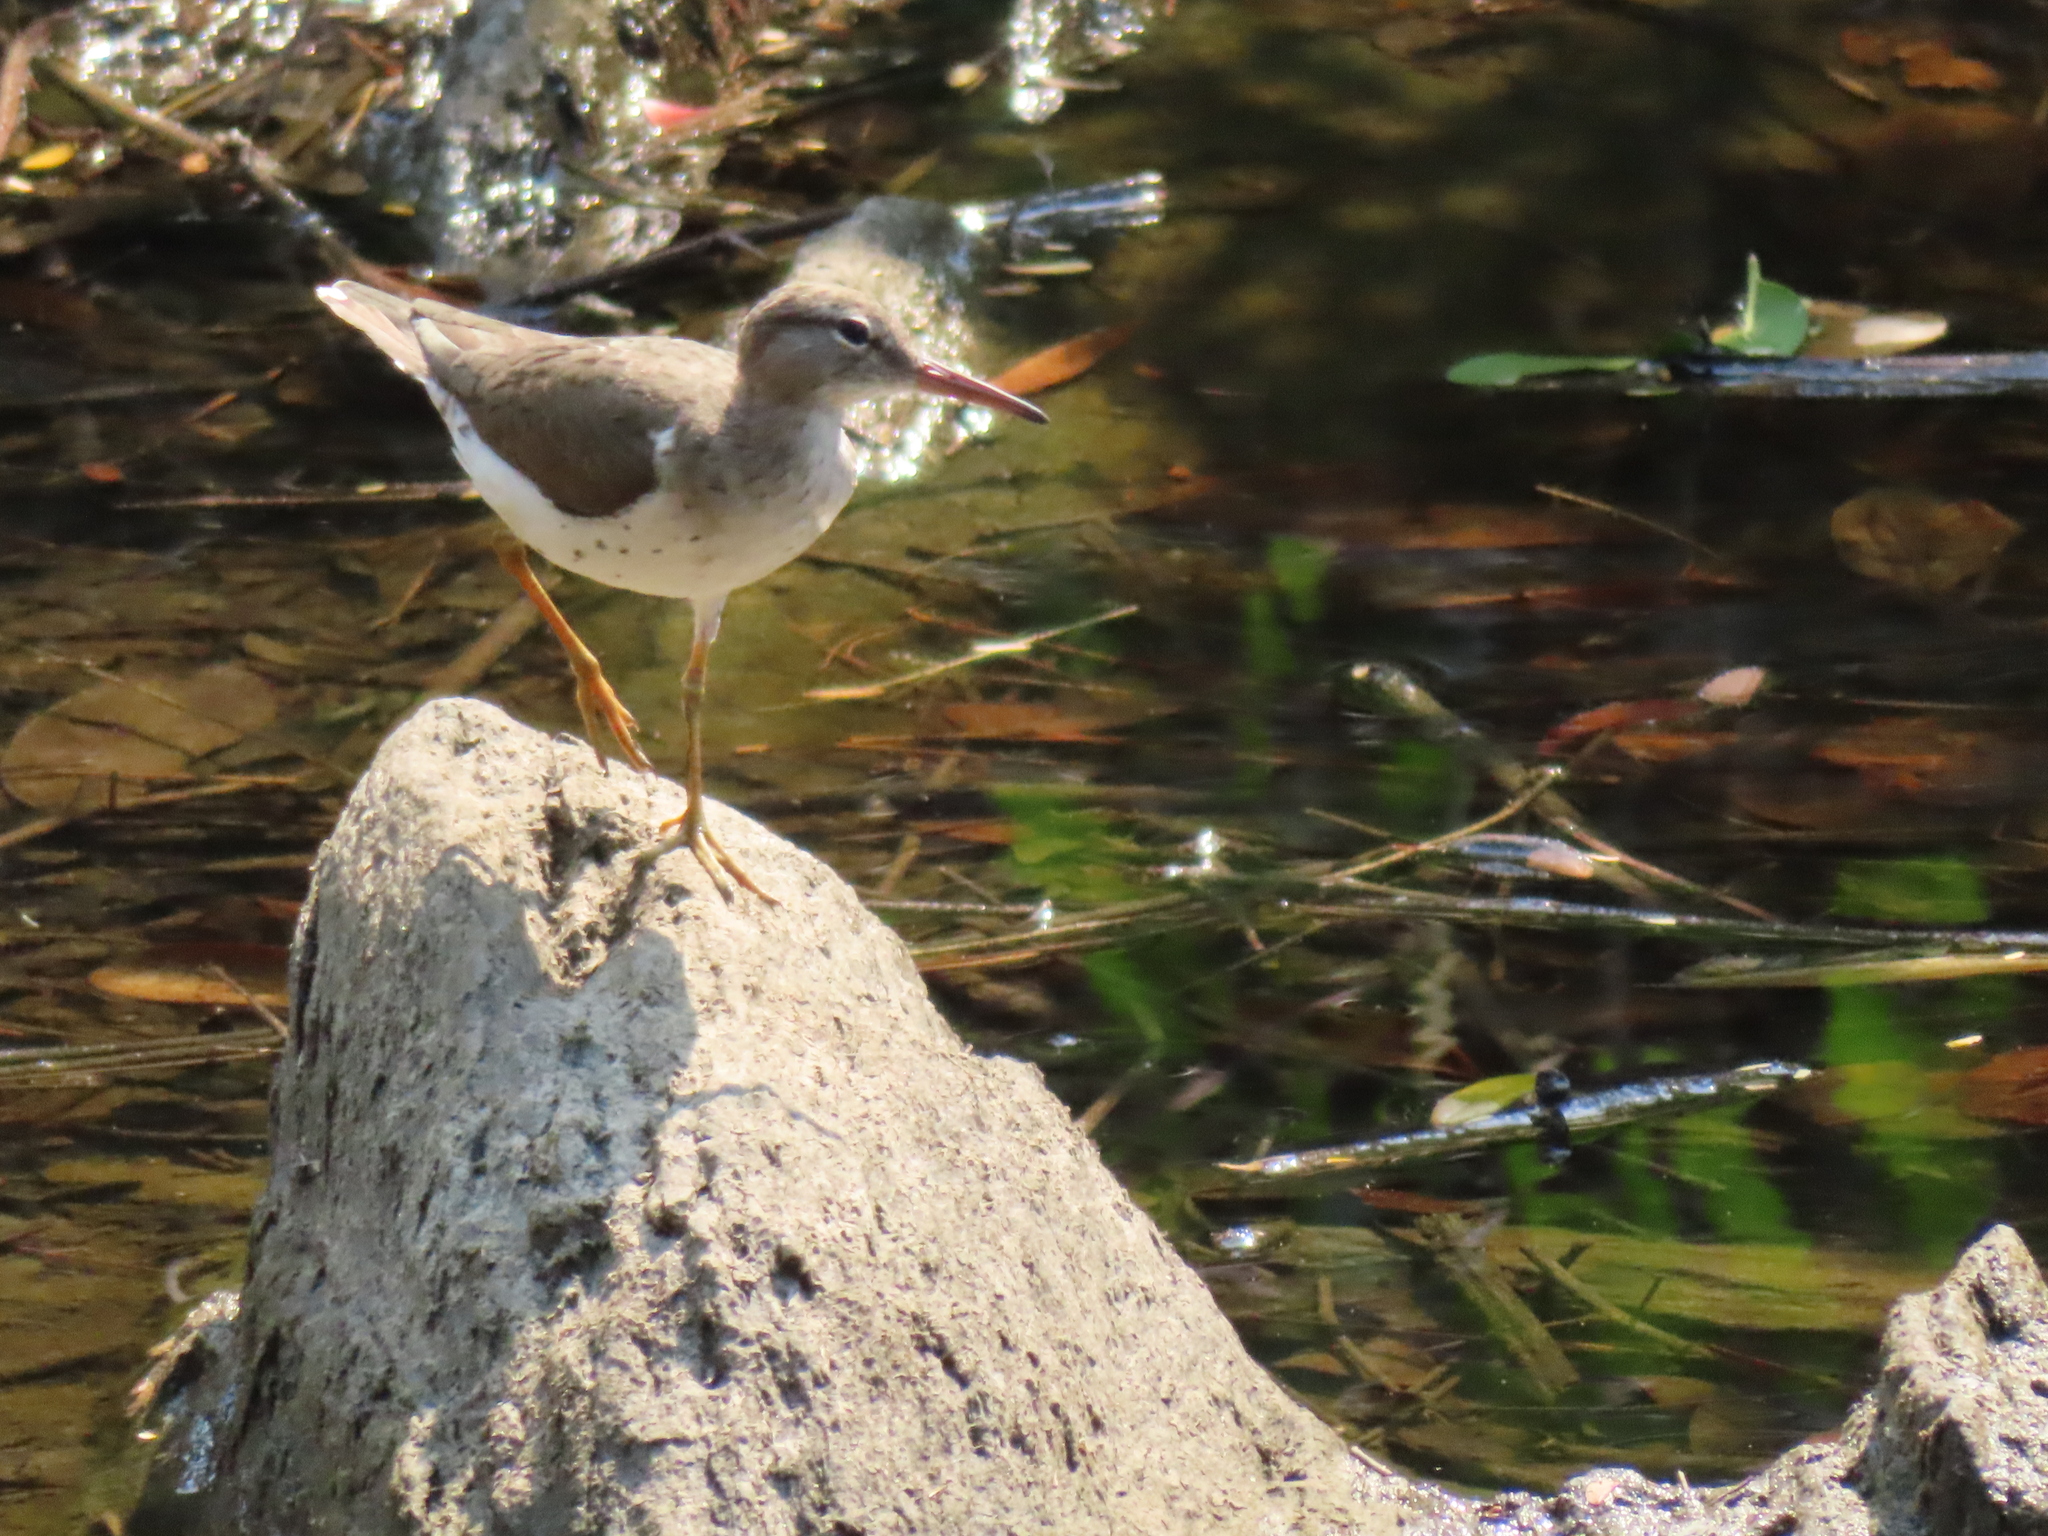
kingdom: Animalia
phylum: Chordata
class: Aves
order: Charadriiformes
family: Scolopacidae
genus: Actitis
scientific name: Actitis macularius
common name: Spotted sandpiper
